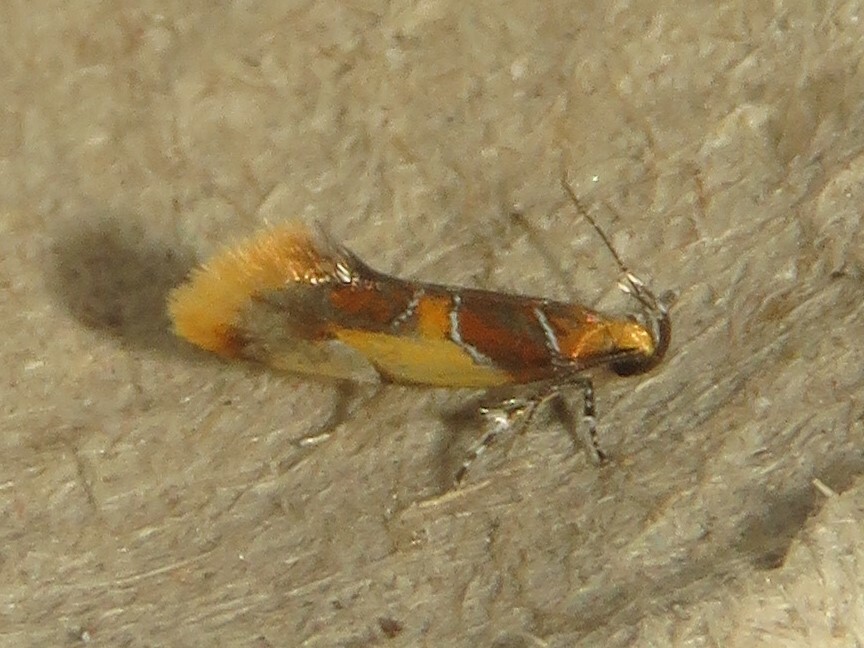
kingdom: Animalia
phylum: Arthropoda
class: Insecta
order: Lepidoptera
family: Oecophoridae
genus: Callima
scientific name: Callima argenticinctella
